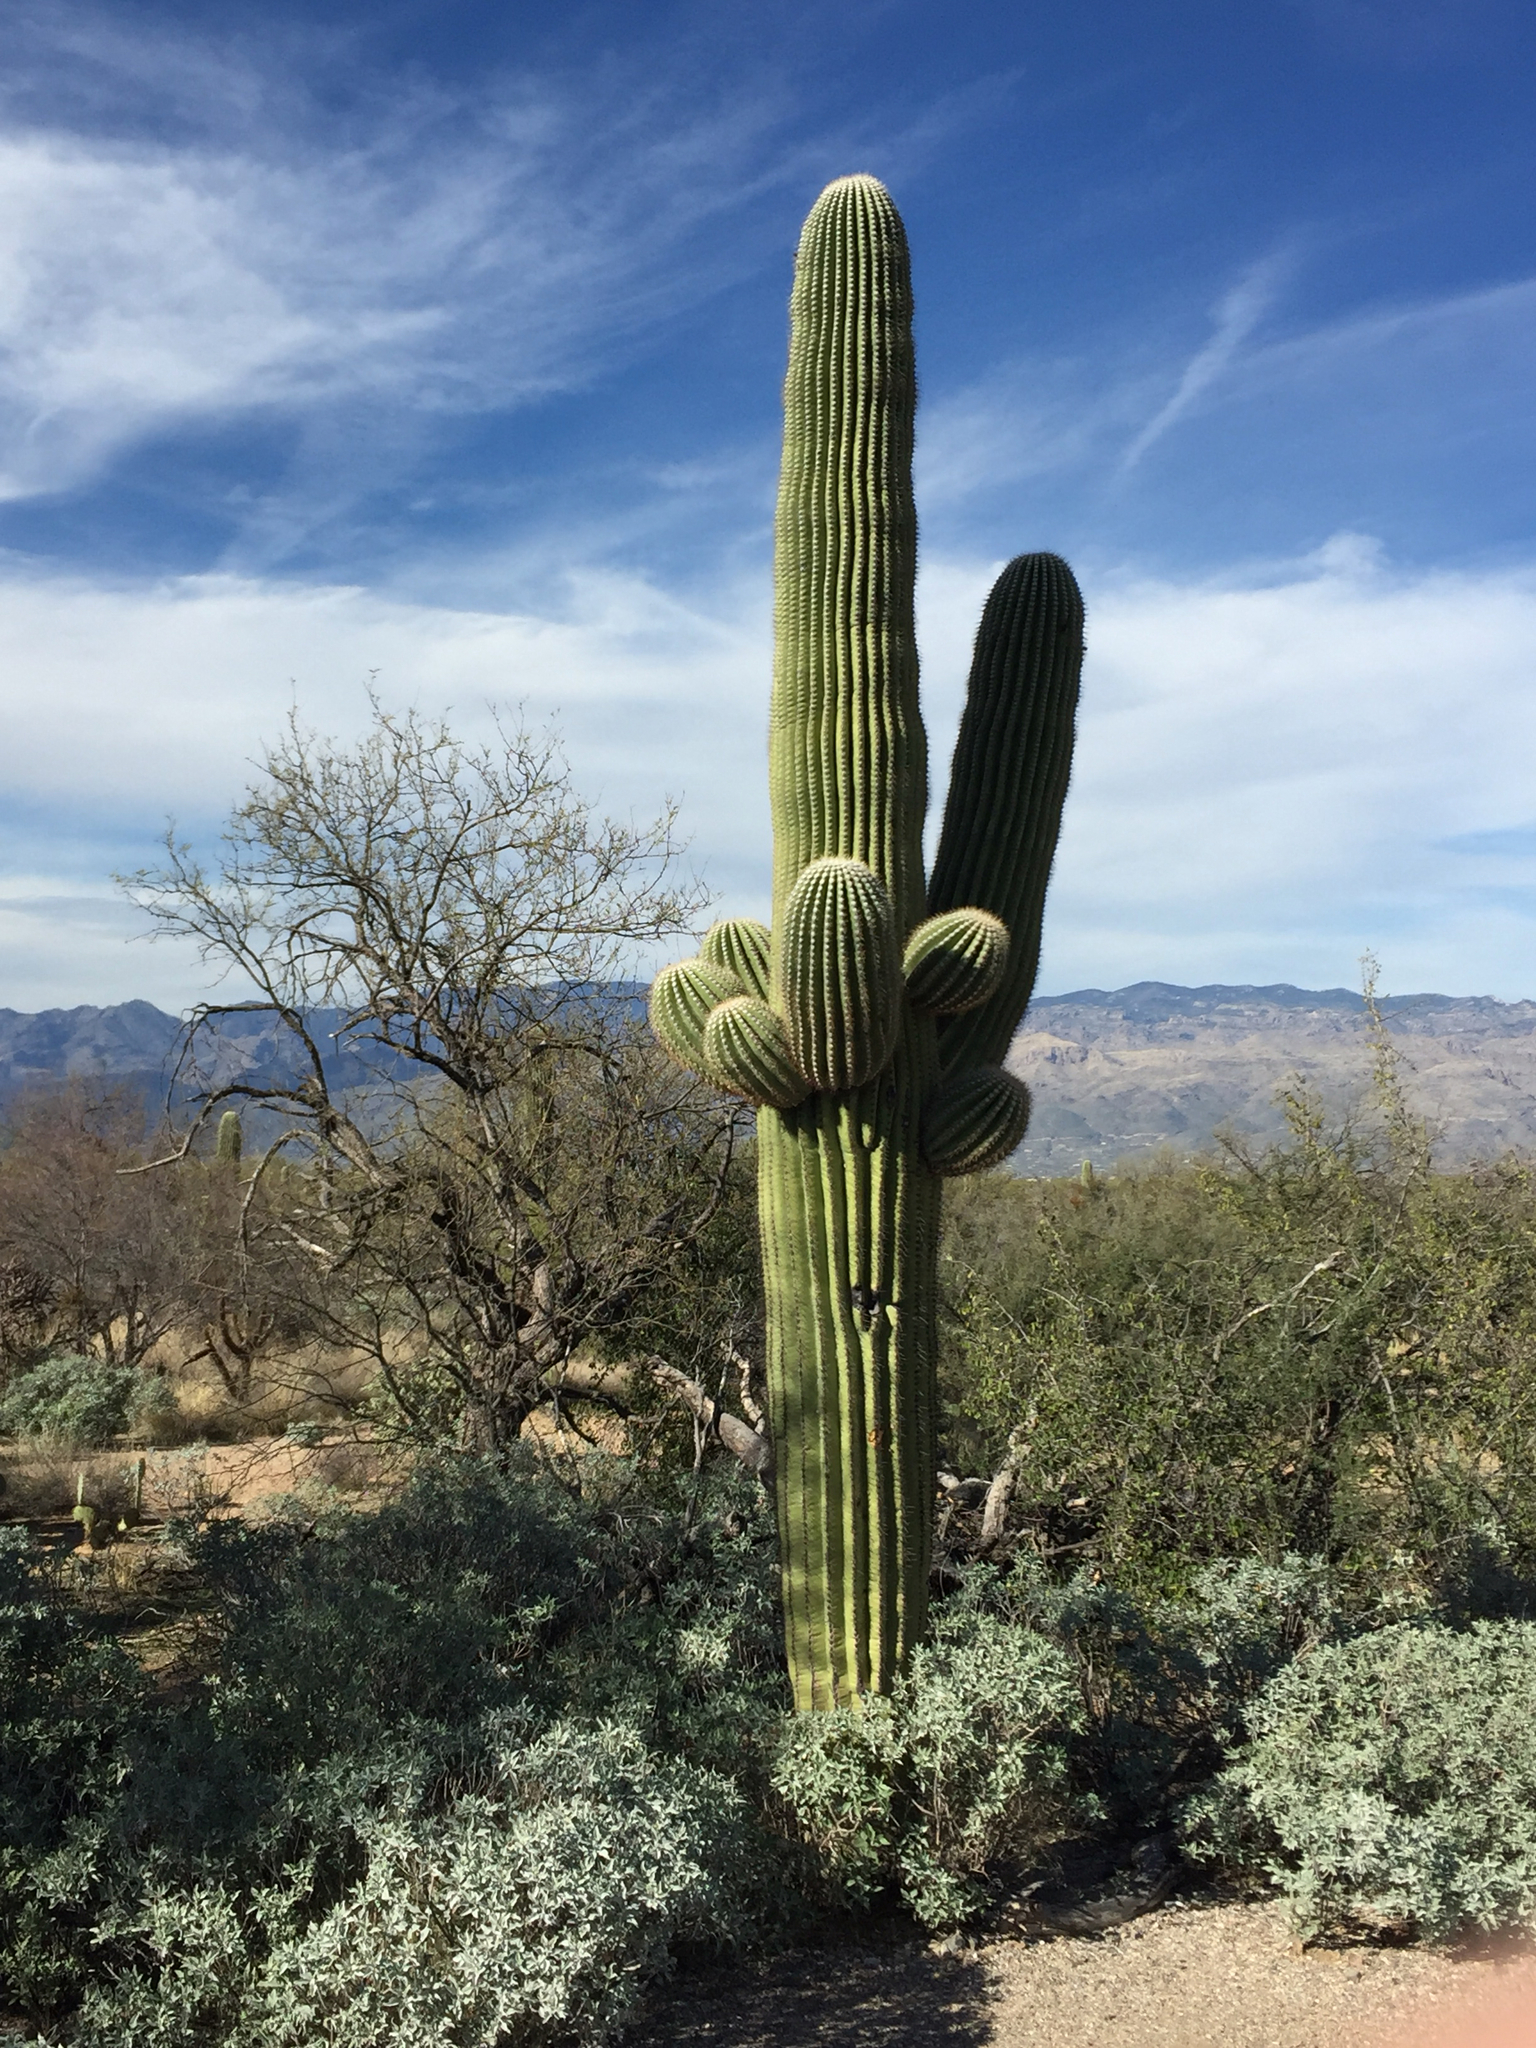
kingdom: Plantae
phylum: Tracheophyta
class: Magnoliopsida
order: Caryophyllales
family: Cactaceae
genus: Carnegiea
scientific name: Carnegiea gigantea
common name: Saguaro
